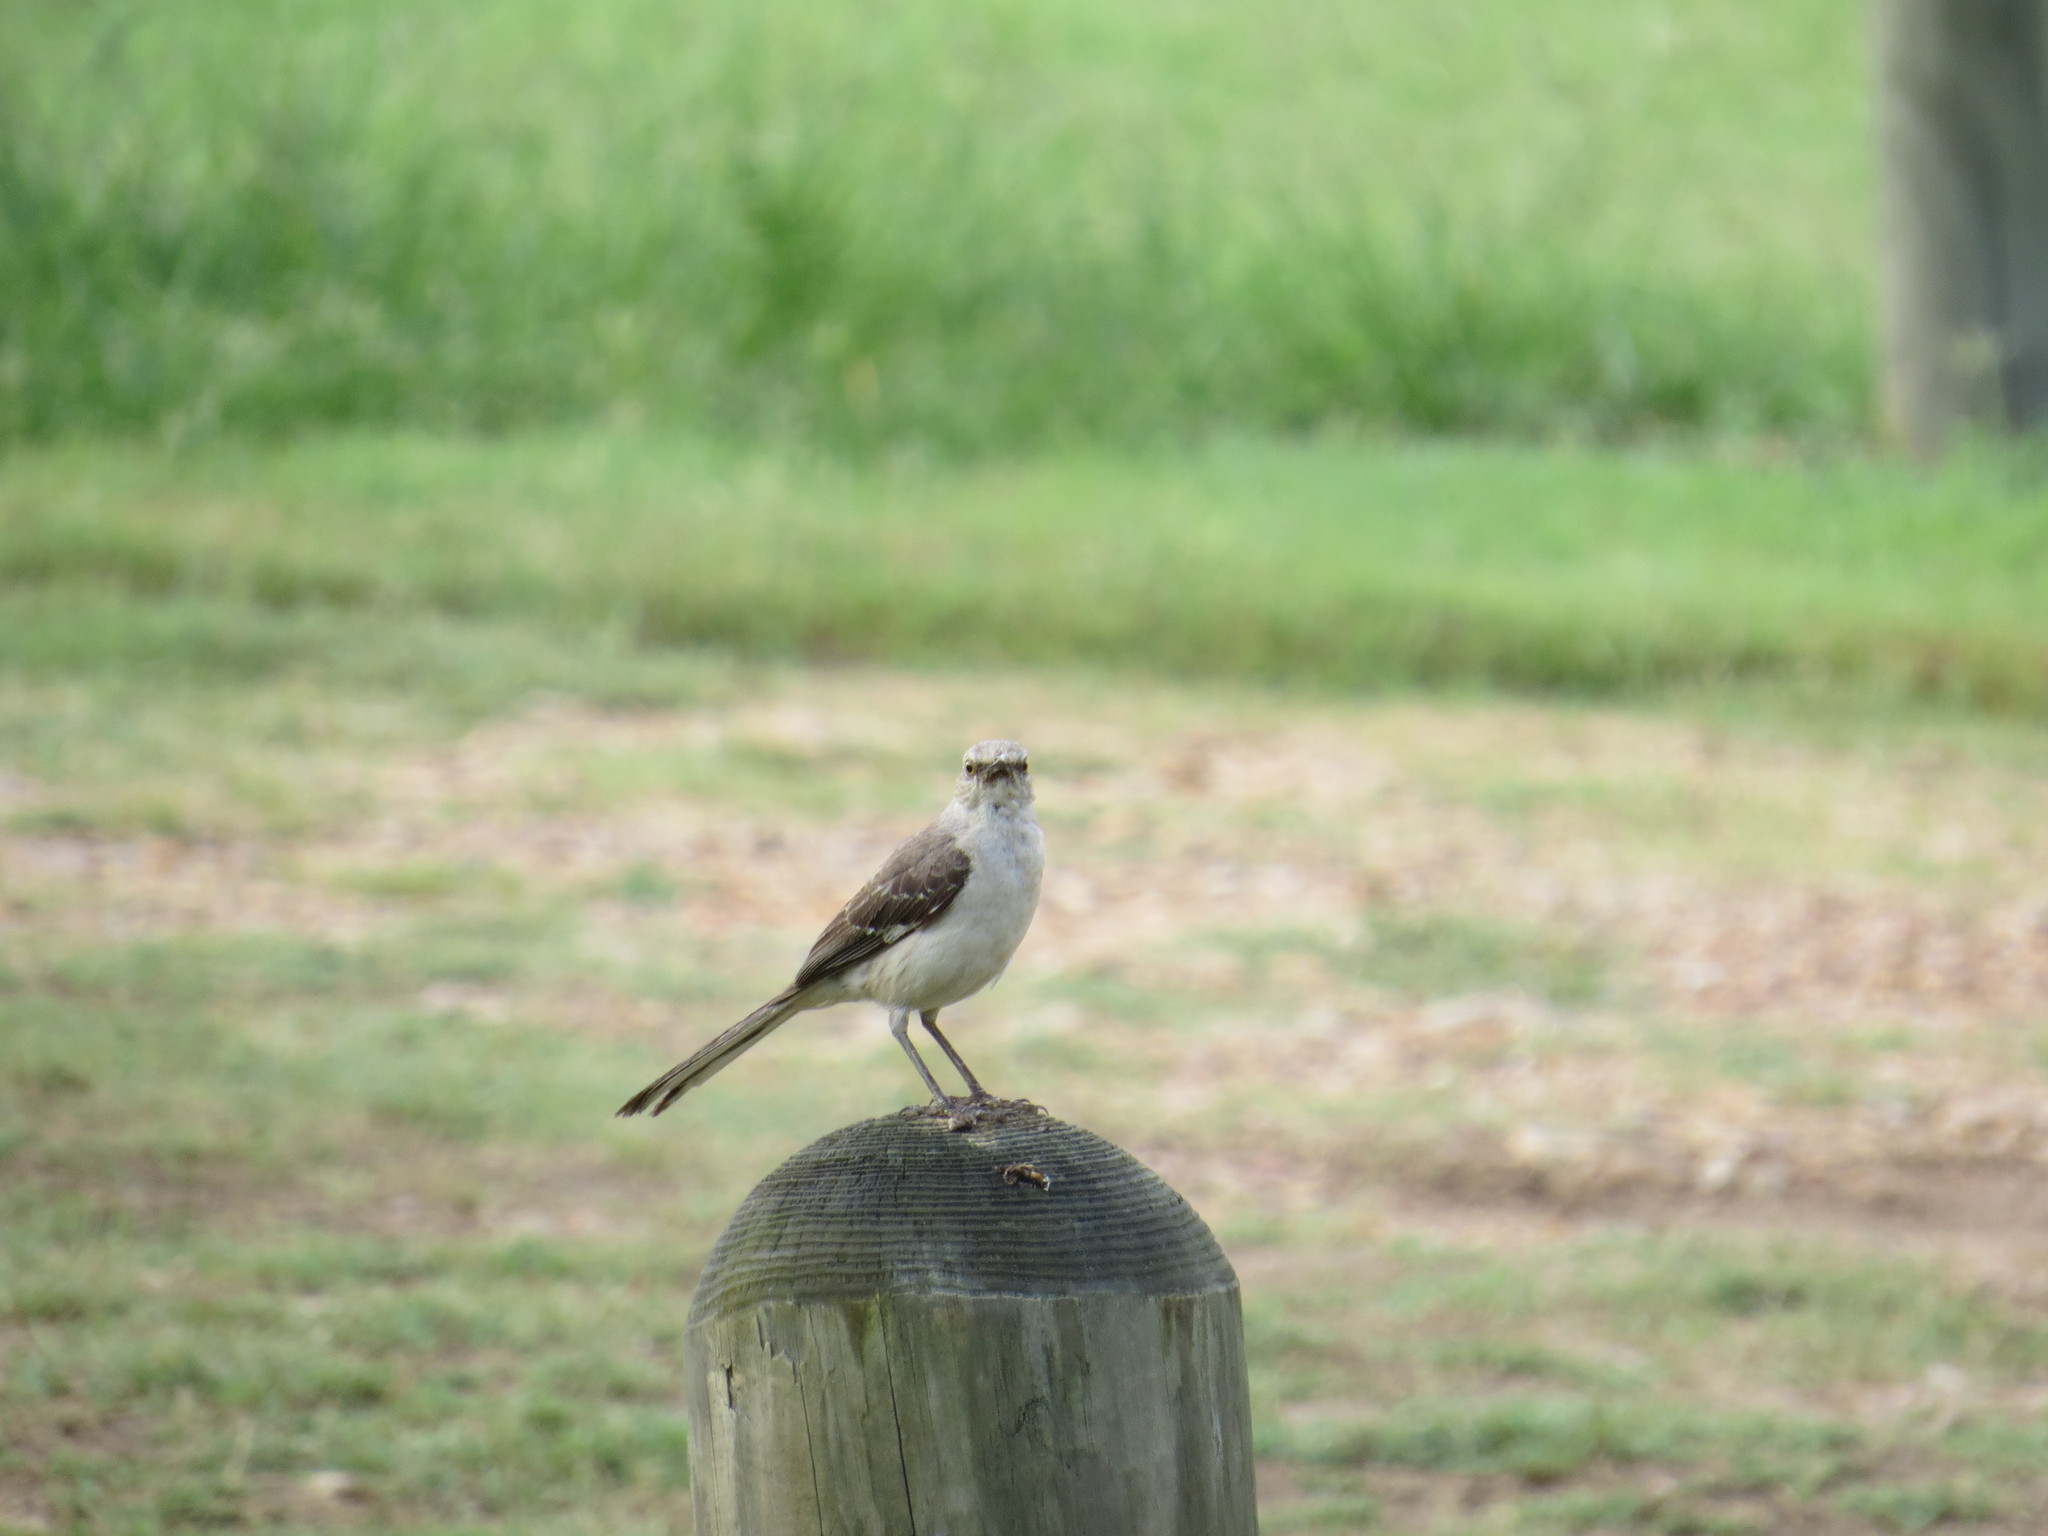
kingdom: Animalia
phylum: Chordata
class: Aves
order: Passeriformes
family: Mimidae
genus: Mimus
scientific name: Mimus polyglottos
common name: Northern mockingbird
